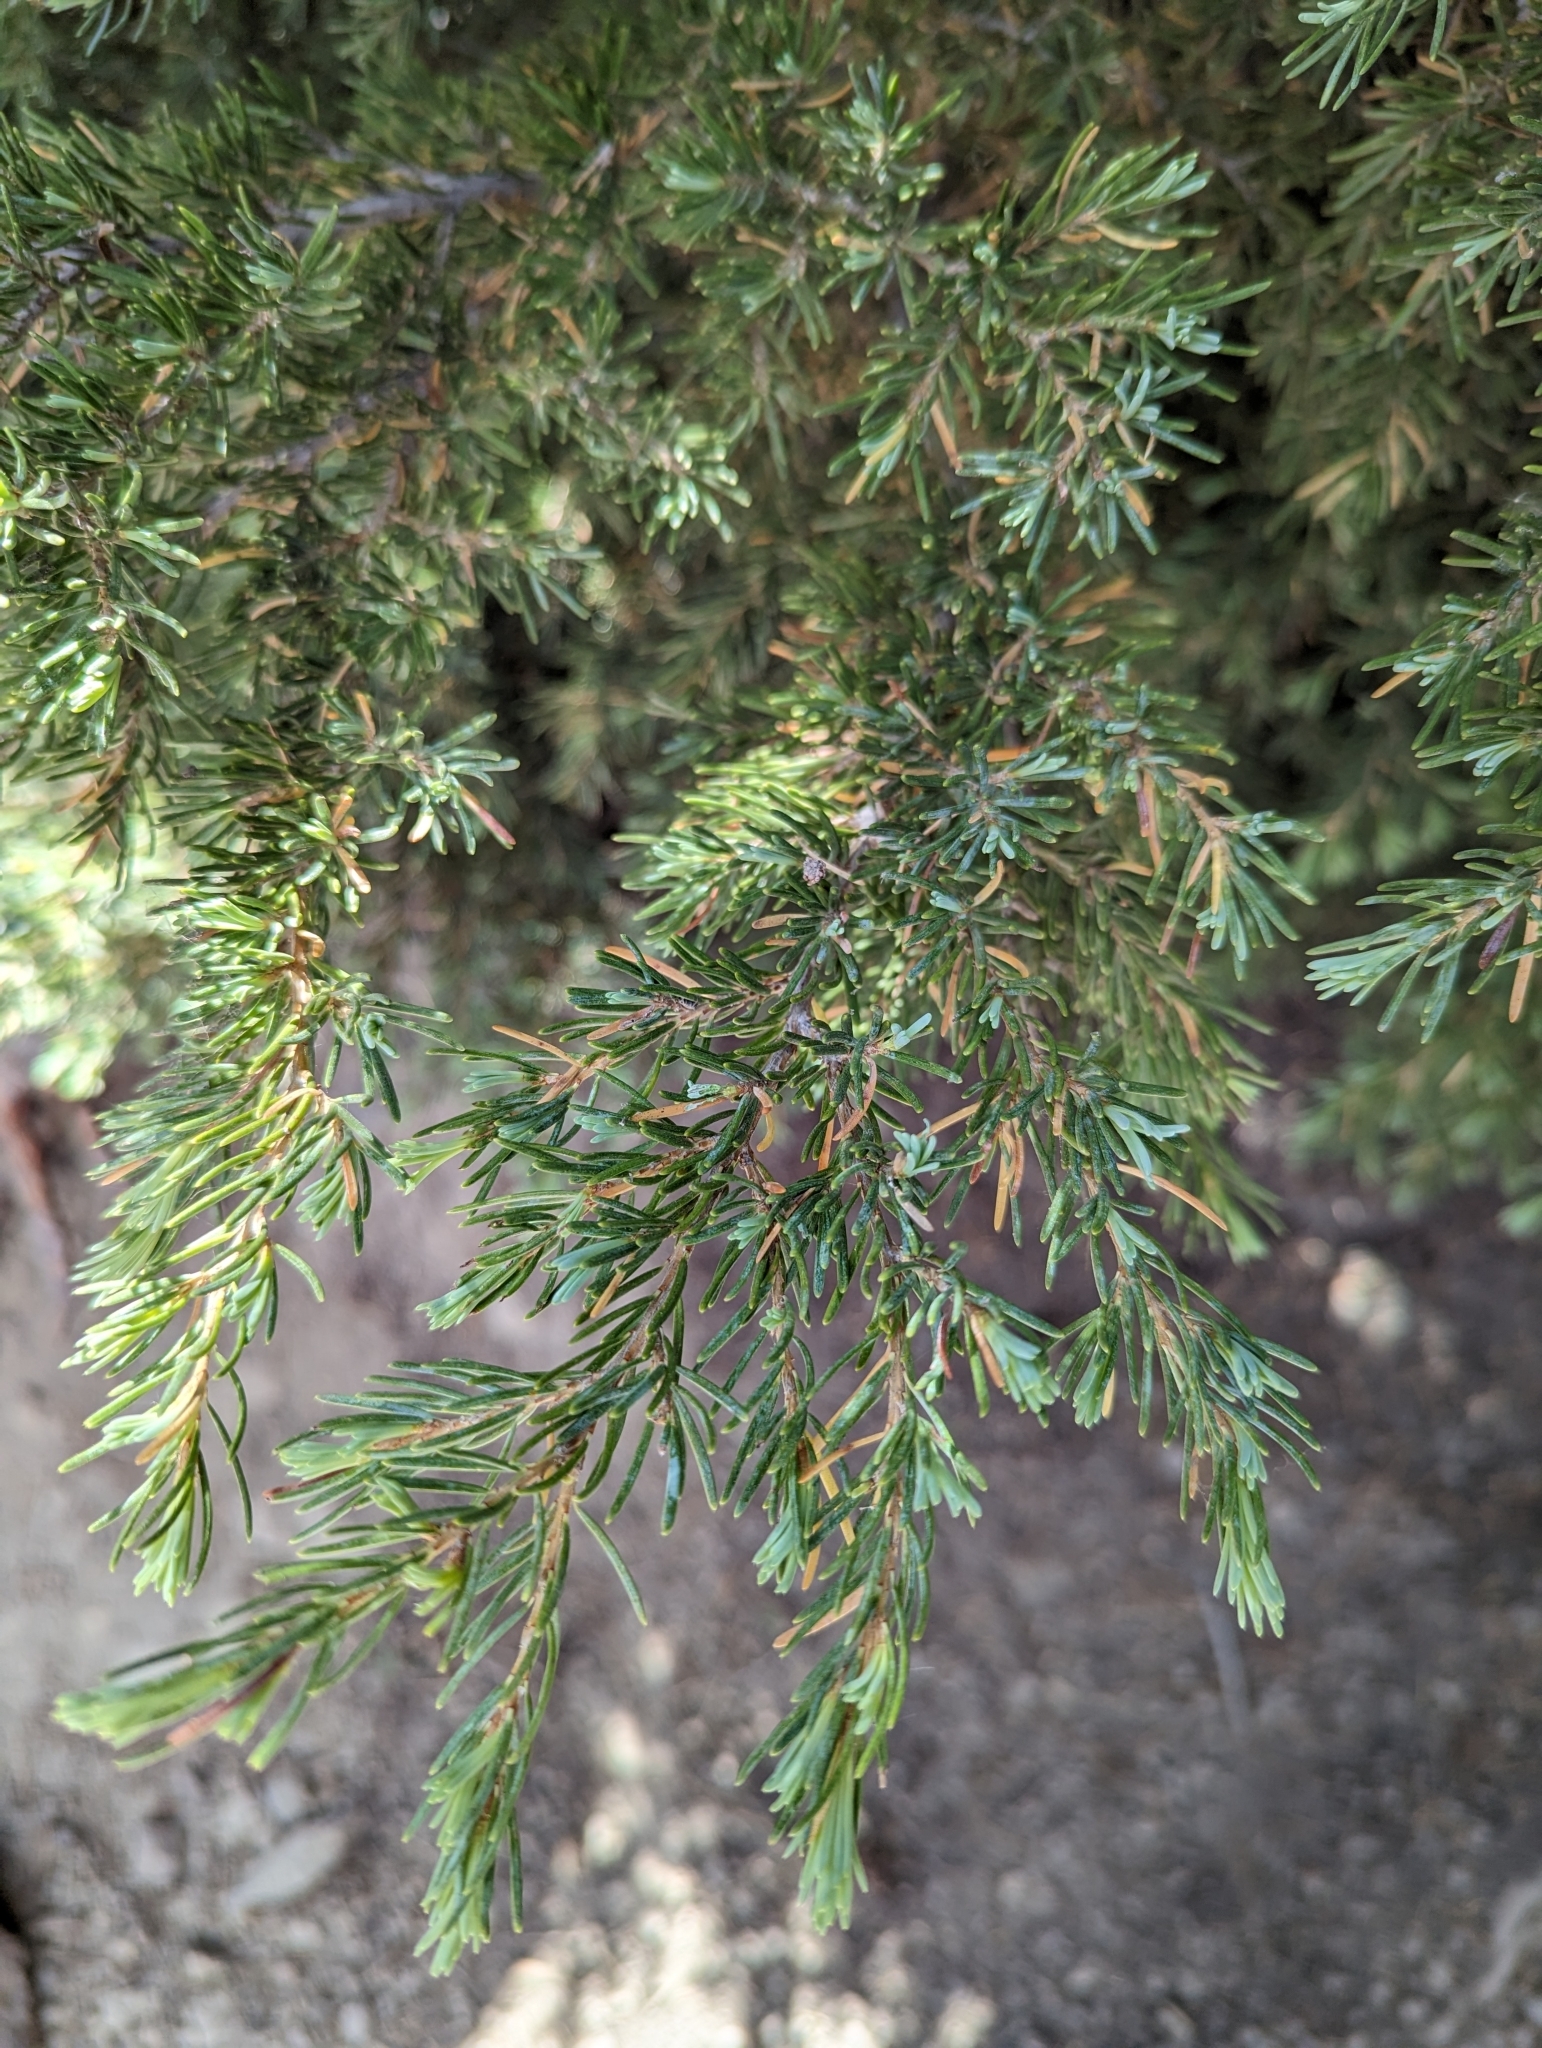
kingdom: Plantae
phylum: Tracheophyta
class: Pinopsida
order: Pinales
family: Pinaceae
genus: Tsuga
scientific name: Tsuga mertensiana
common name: Mountain hemlock
